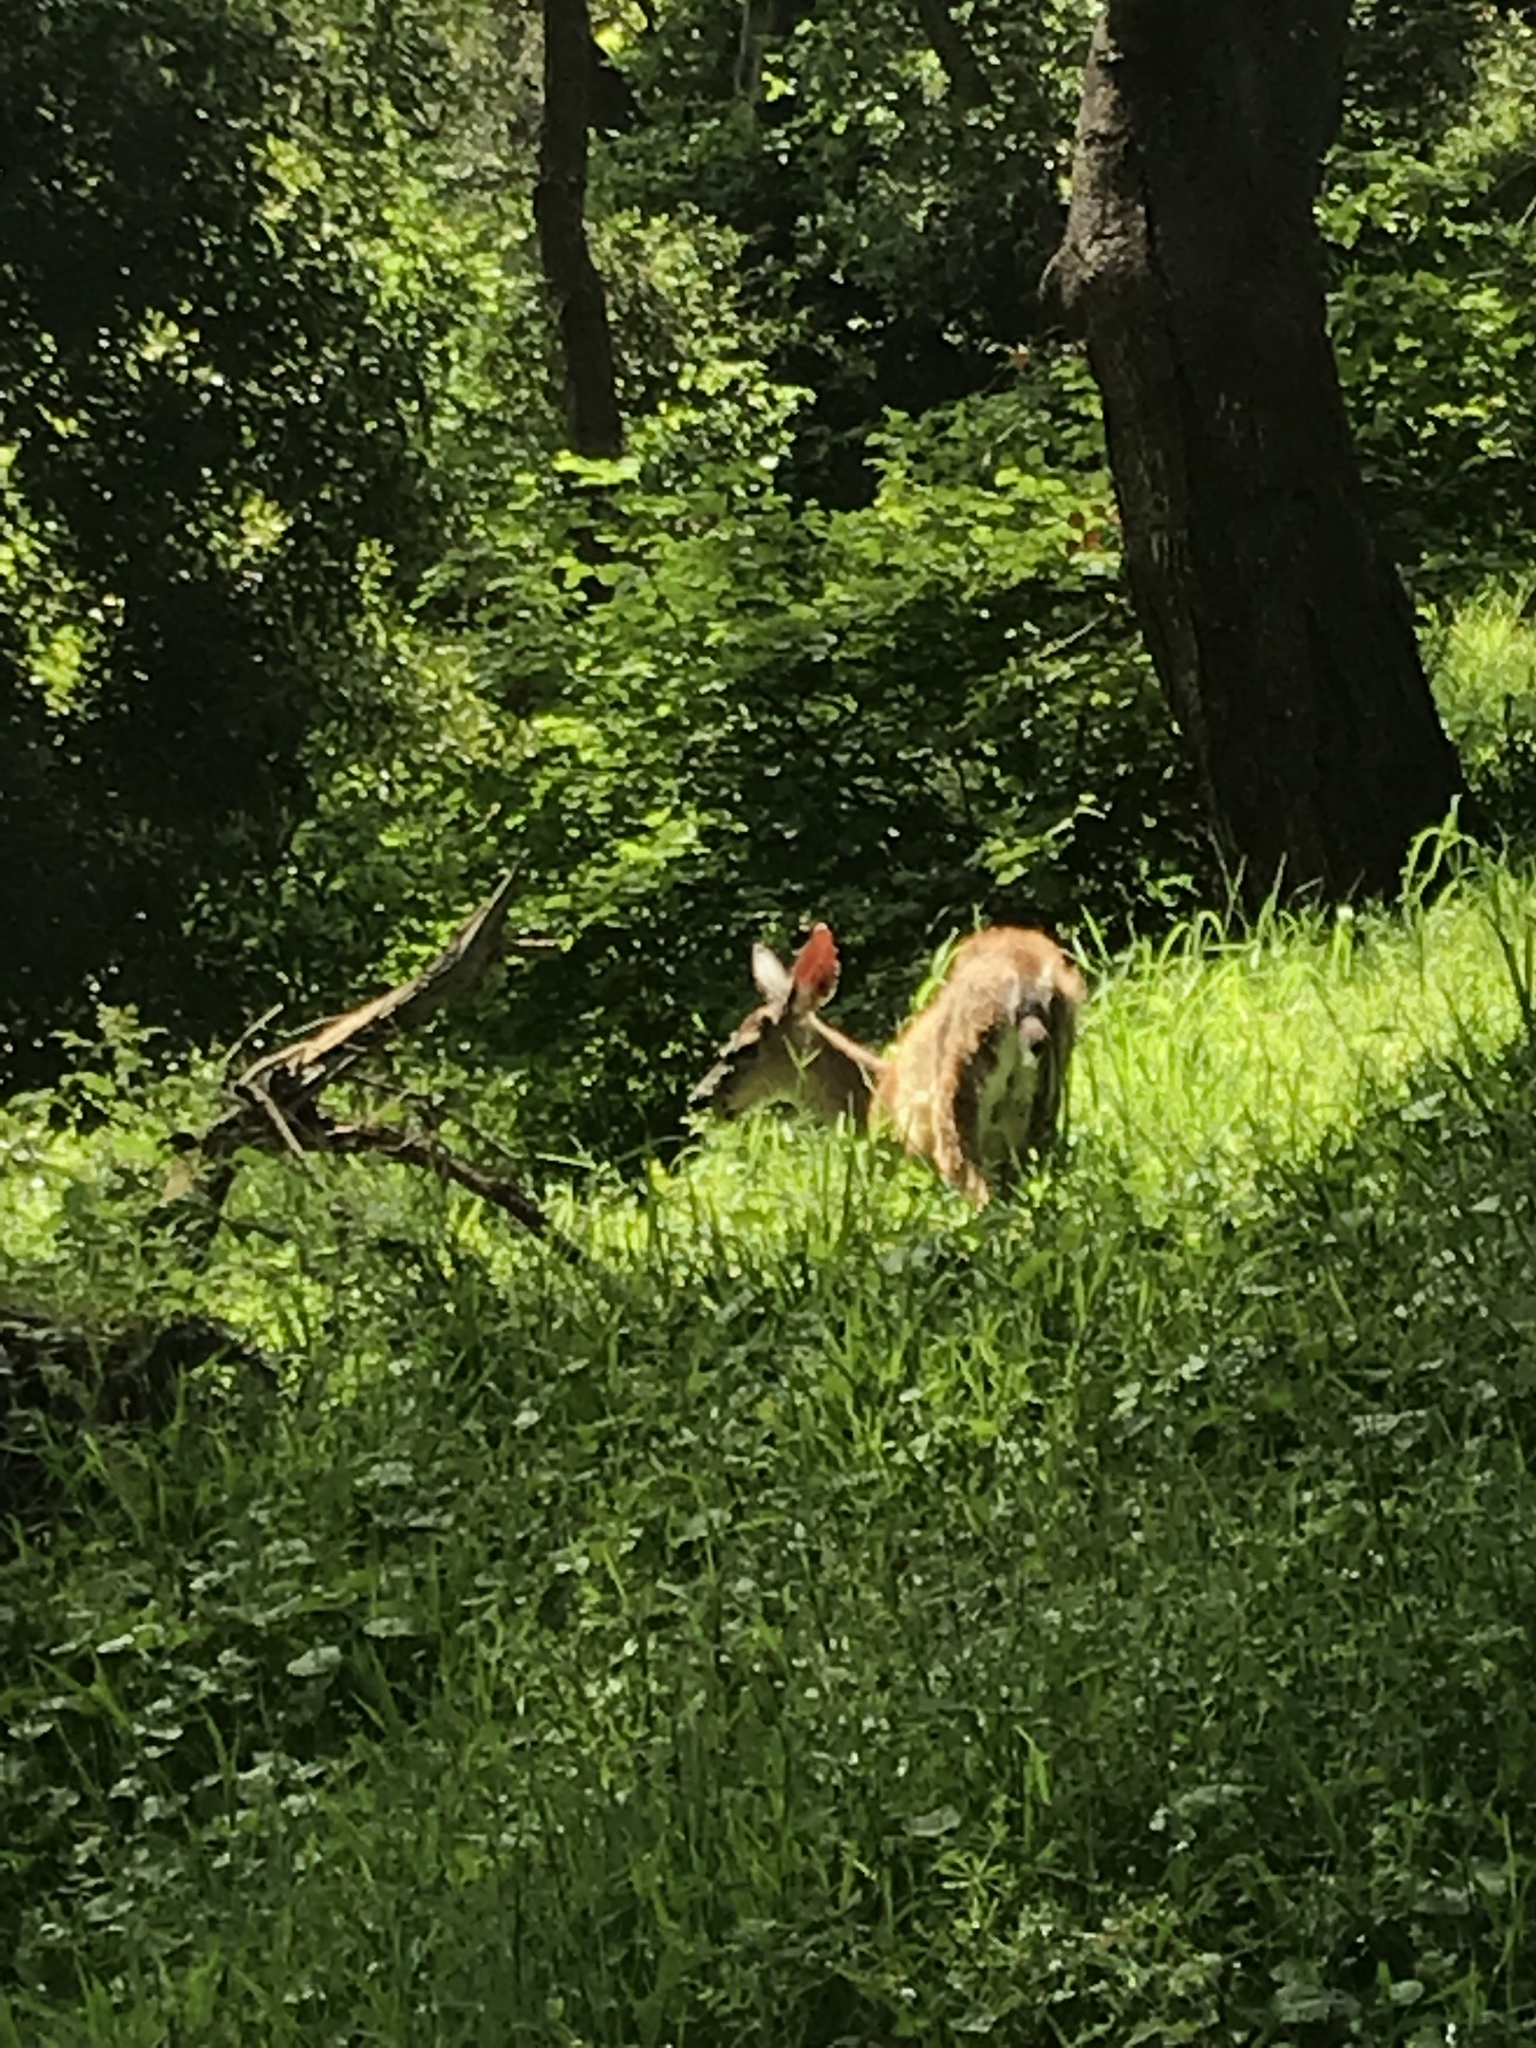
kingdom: Animalia
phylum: Chordata
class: Mammalia
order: Artiodactyla
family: Cervidae
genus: Odocoileus
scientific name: Odocoileus hemionus
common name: Mule deer
